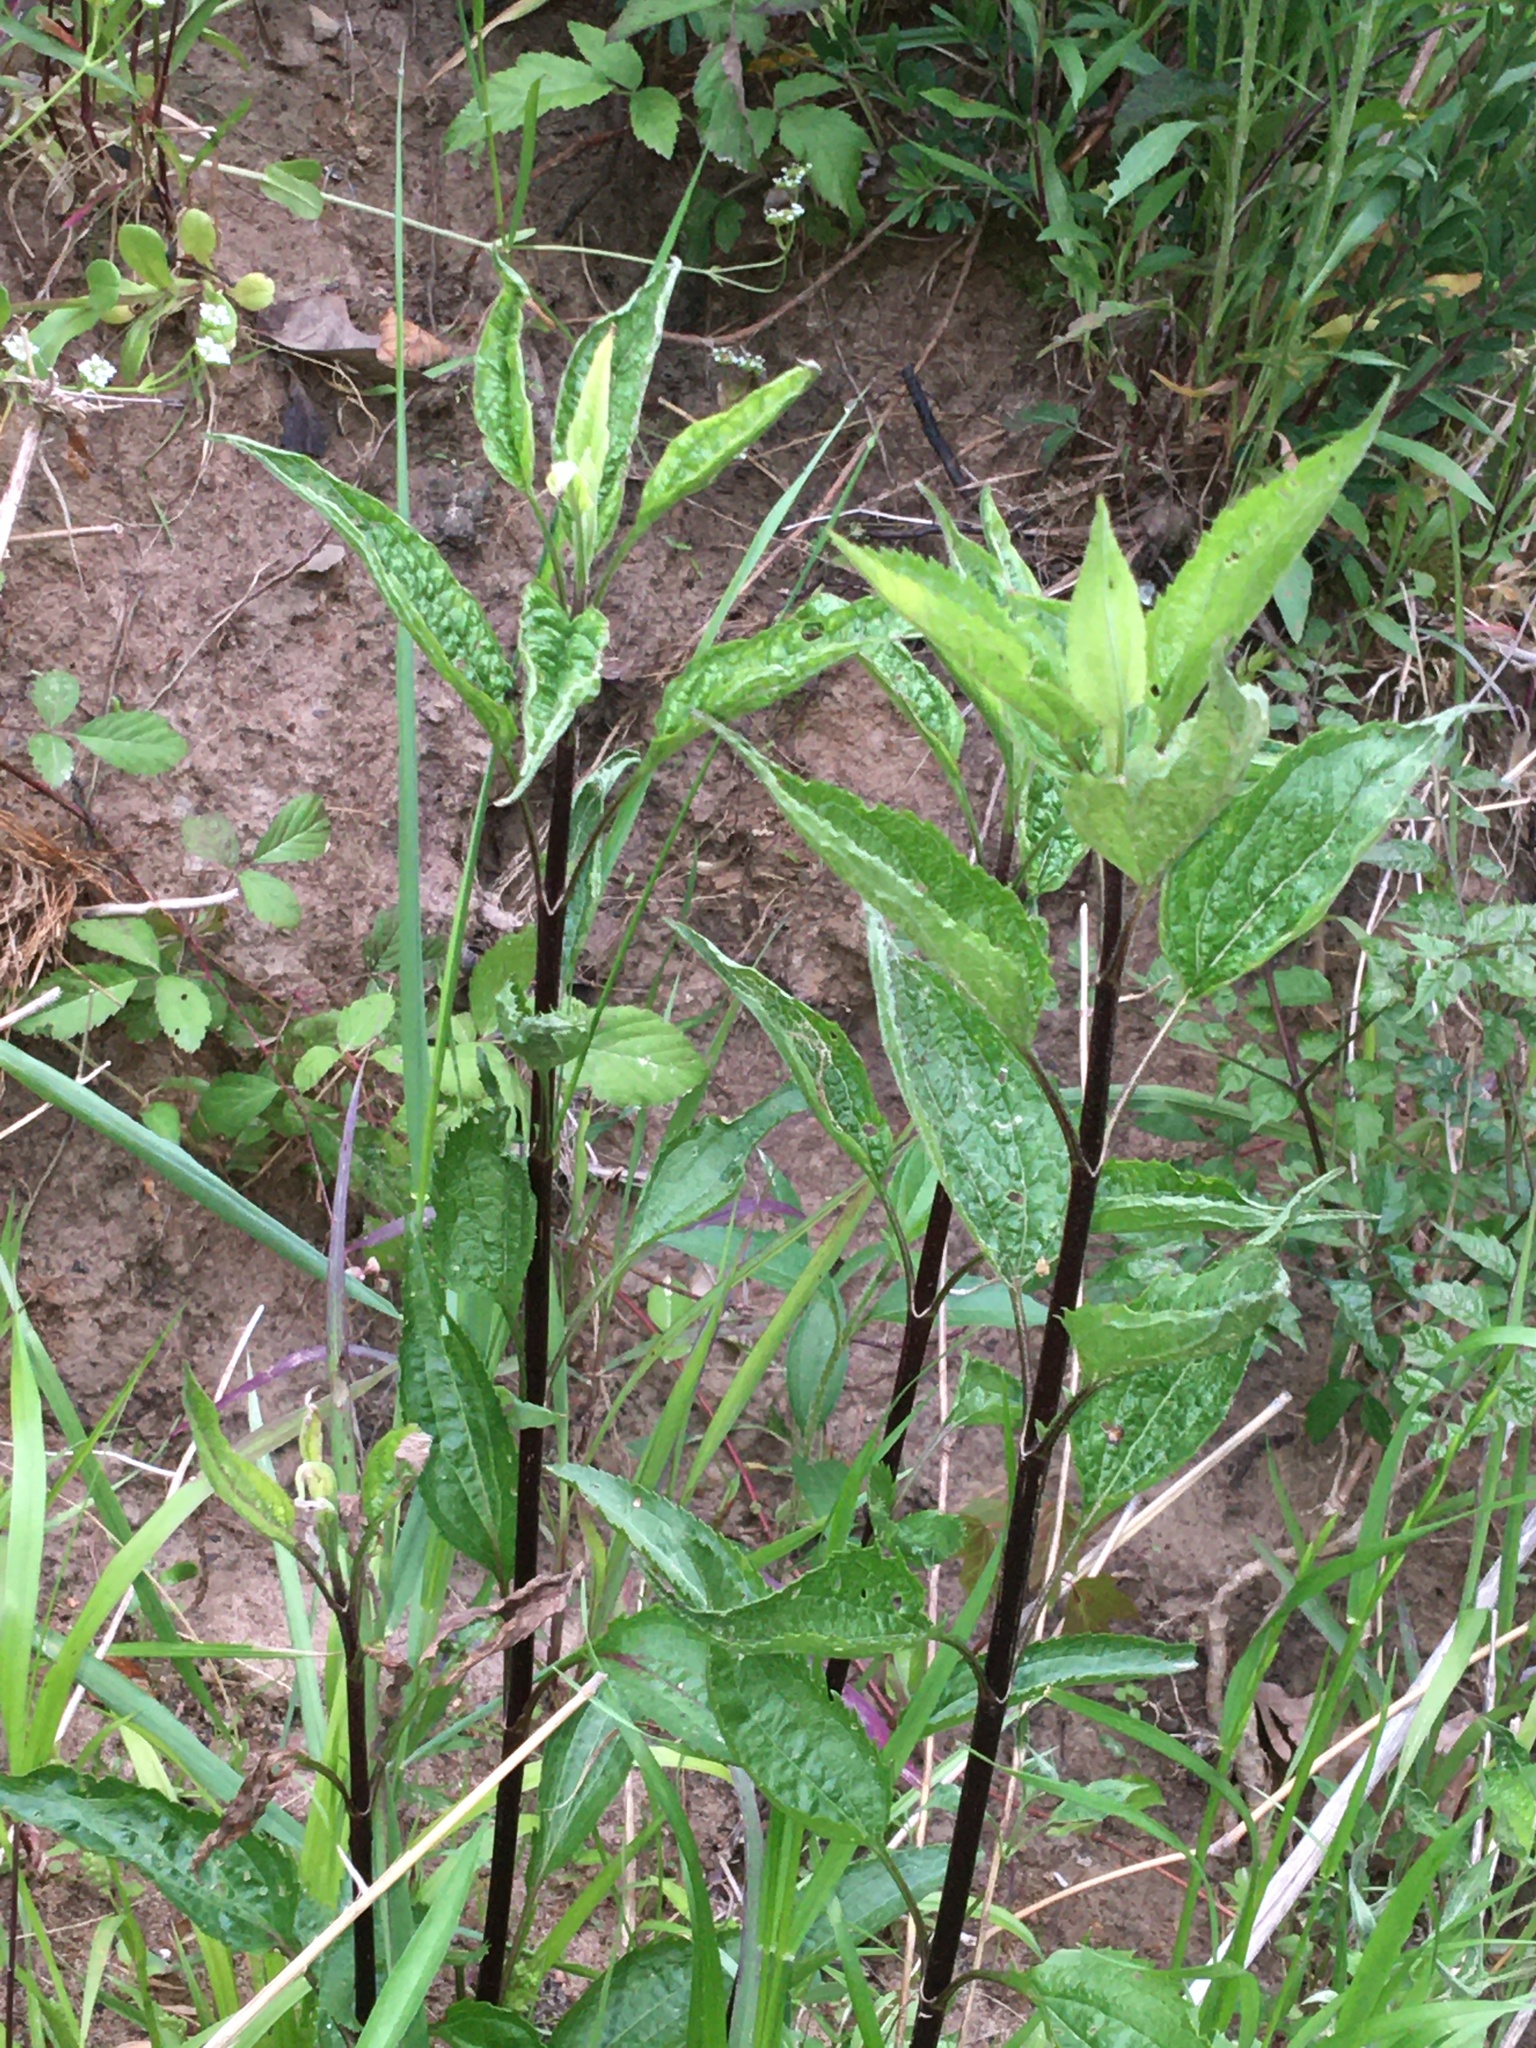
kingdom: Plantae
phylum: Tracheophyta
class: Magnoliopsida
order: Asterales
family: Asteraceae
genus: Eupatorium
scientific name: Eupatorium serotinum
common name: Late boneset
